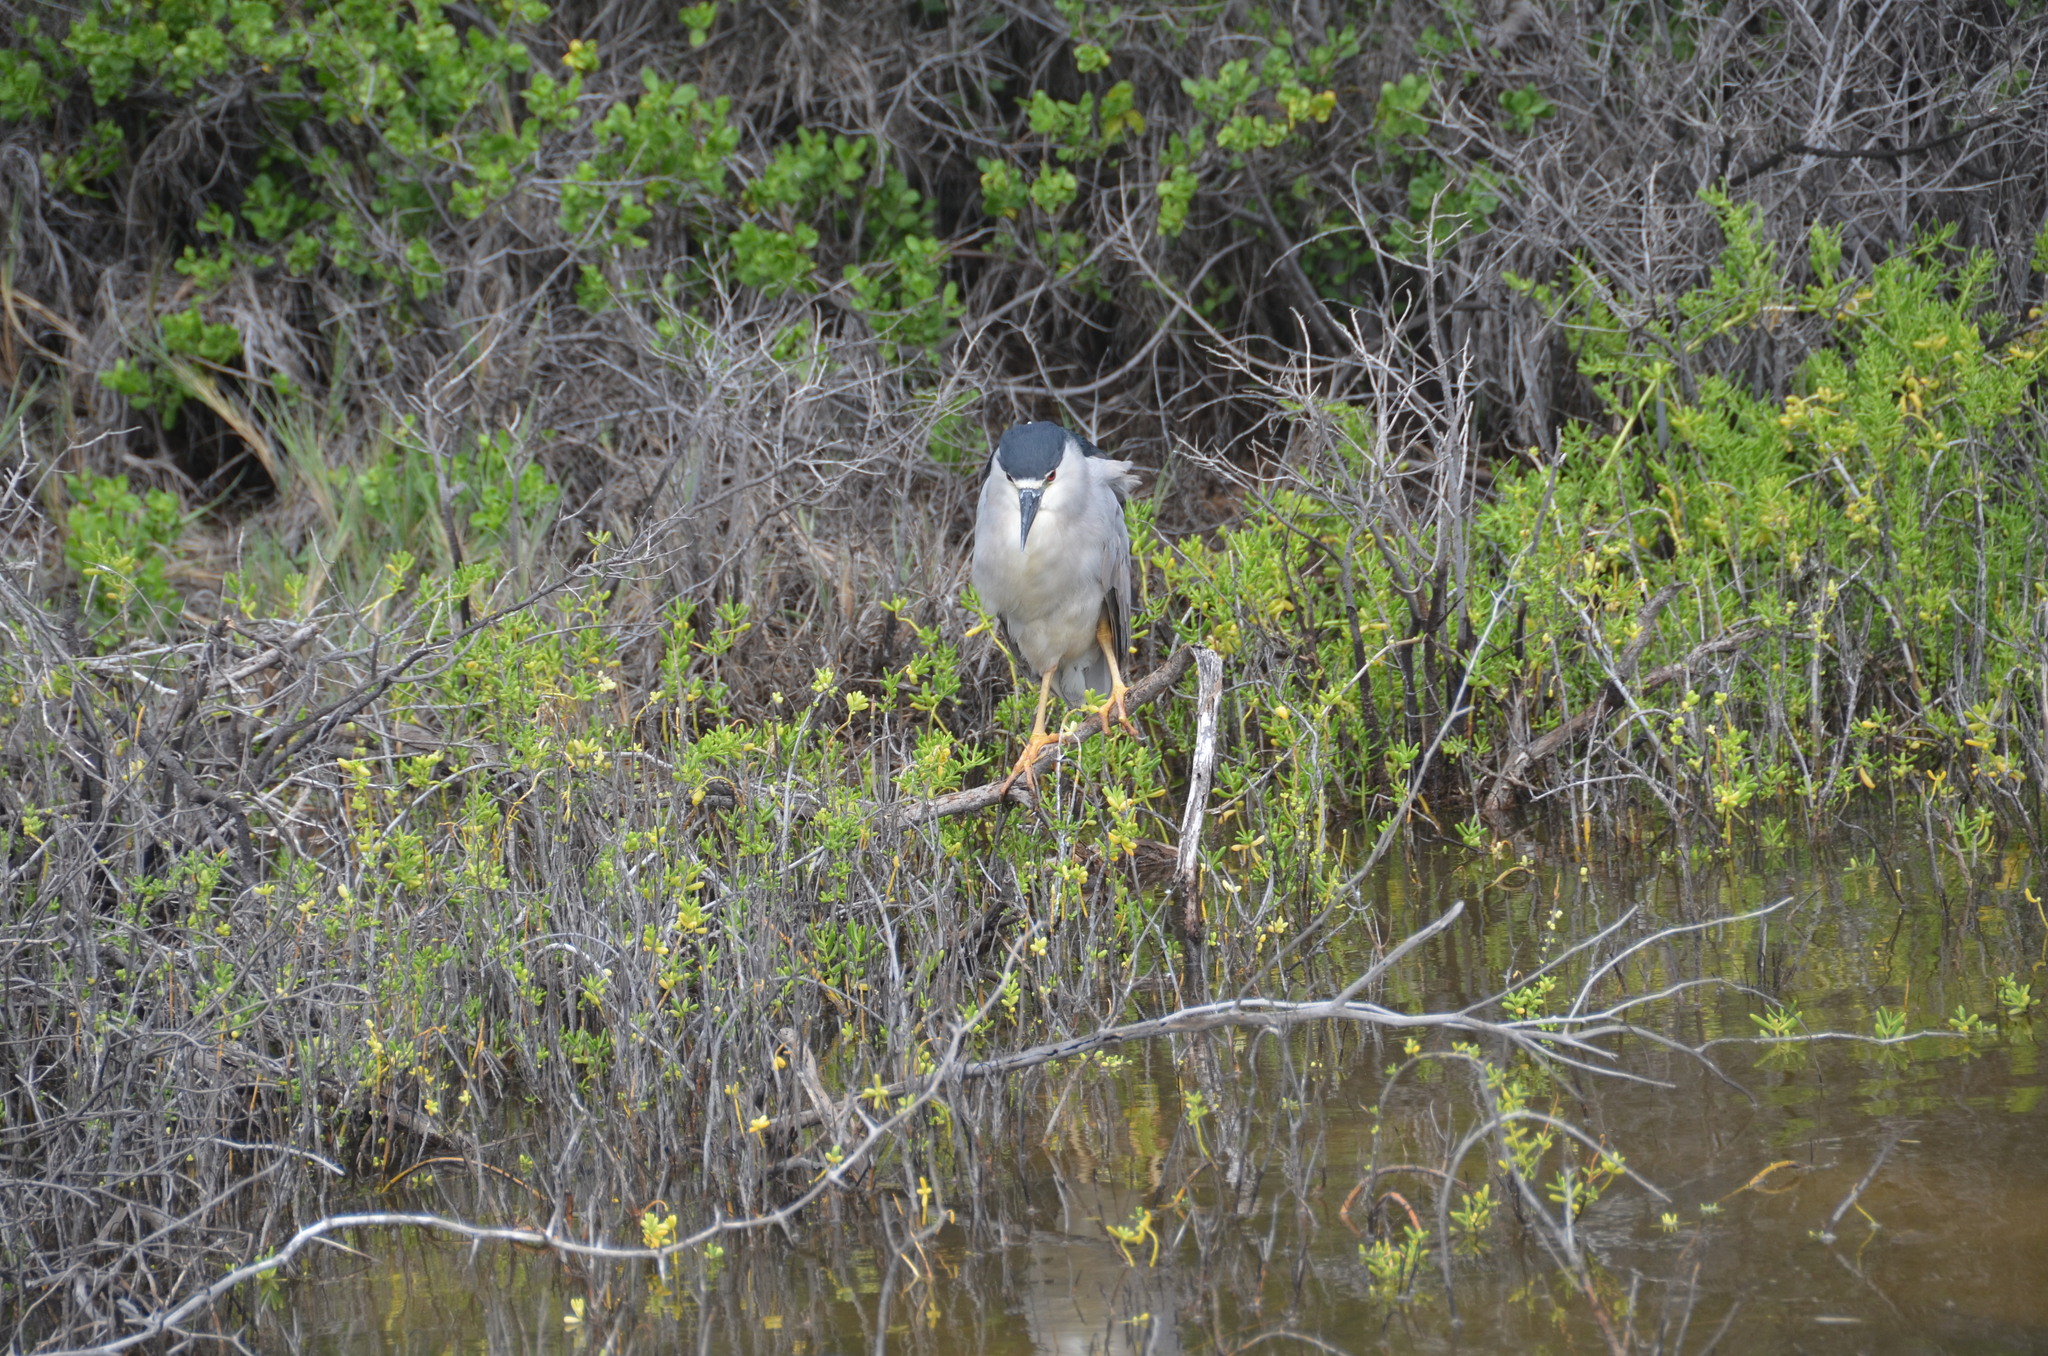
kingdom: Animalia
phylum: Chordata
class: Aves
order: Pelecaniformes
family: Ardeidae
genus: Nycticorax
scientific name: Nycticorax nycticorax
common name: Black-crowned night heron
